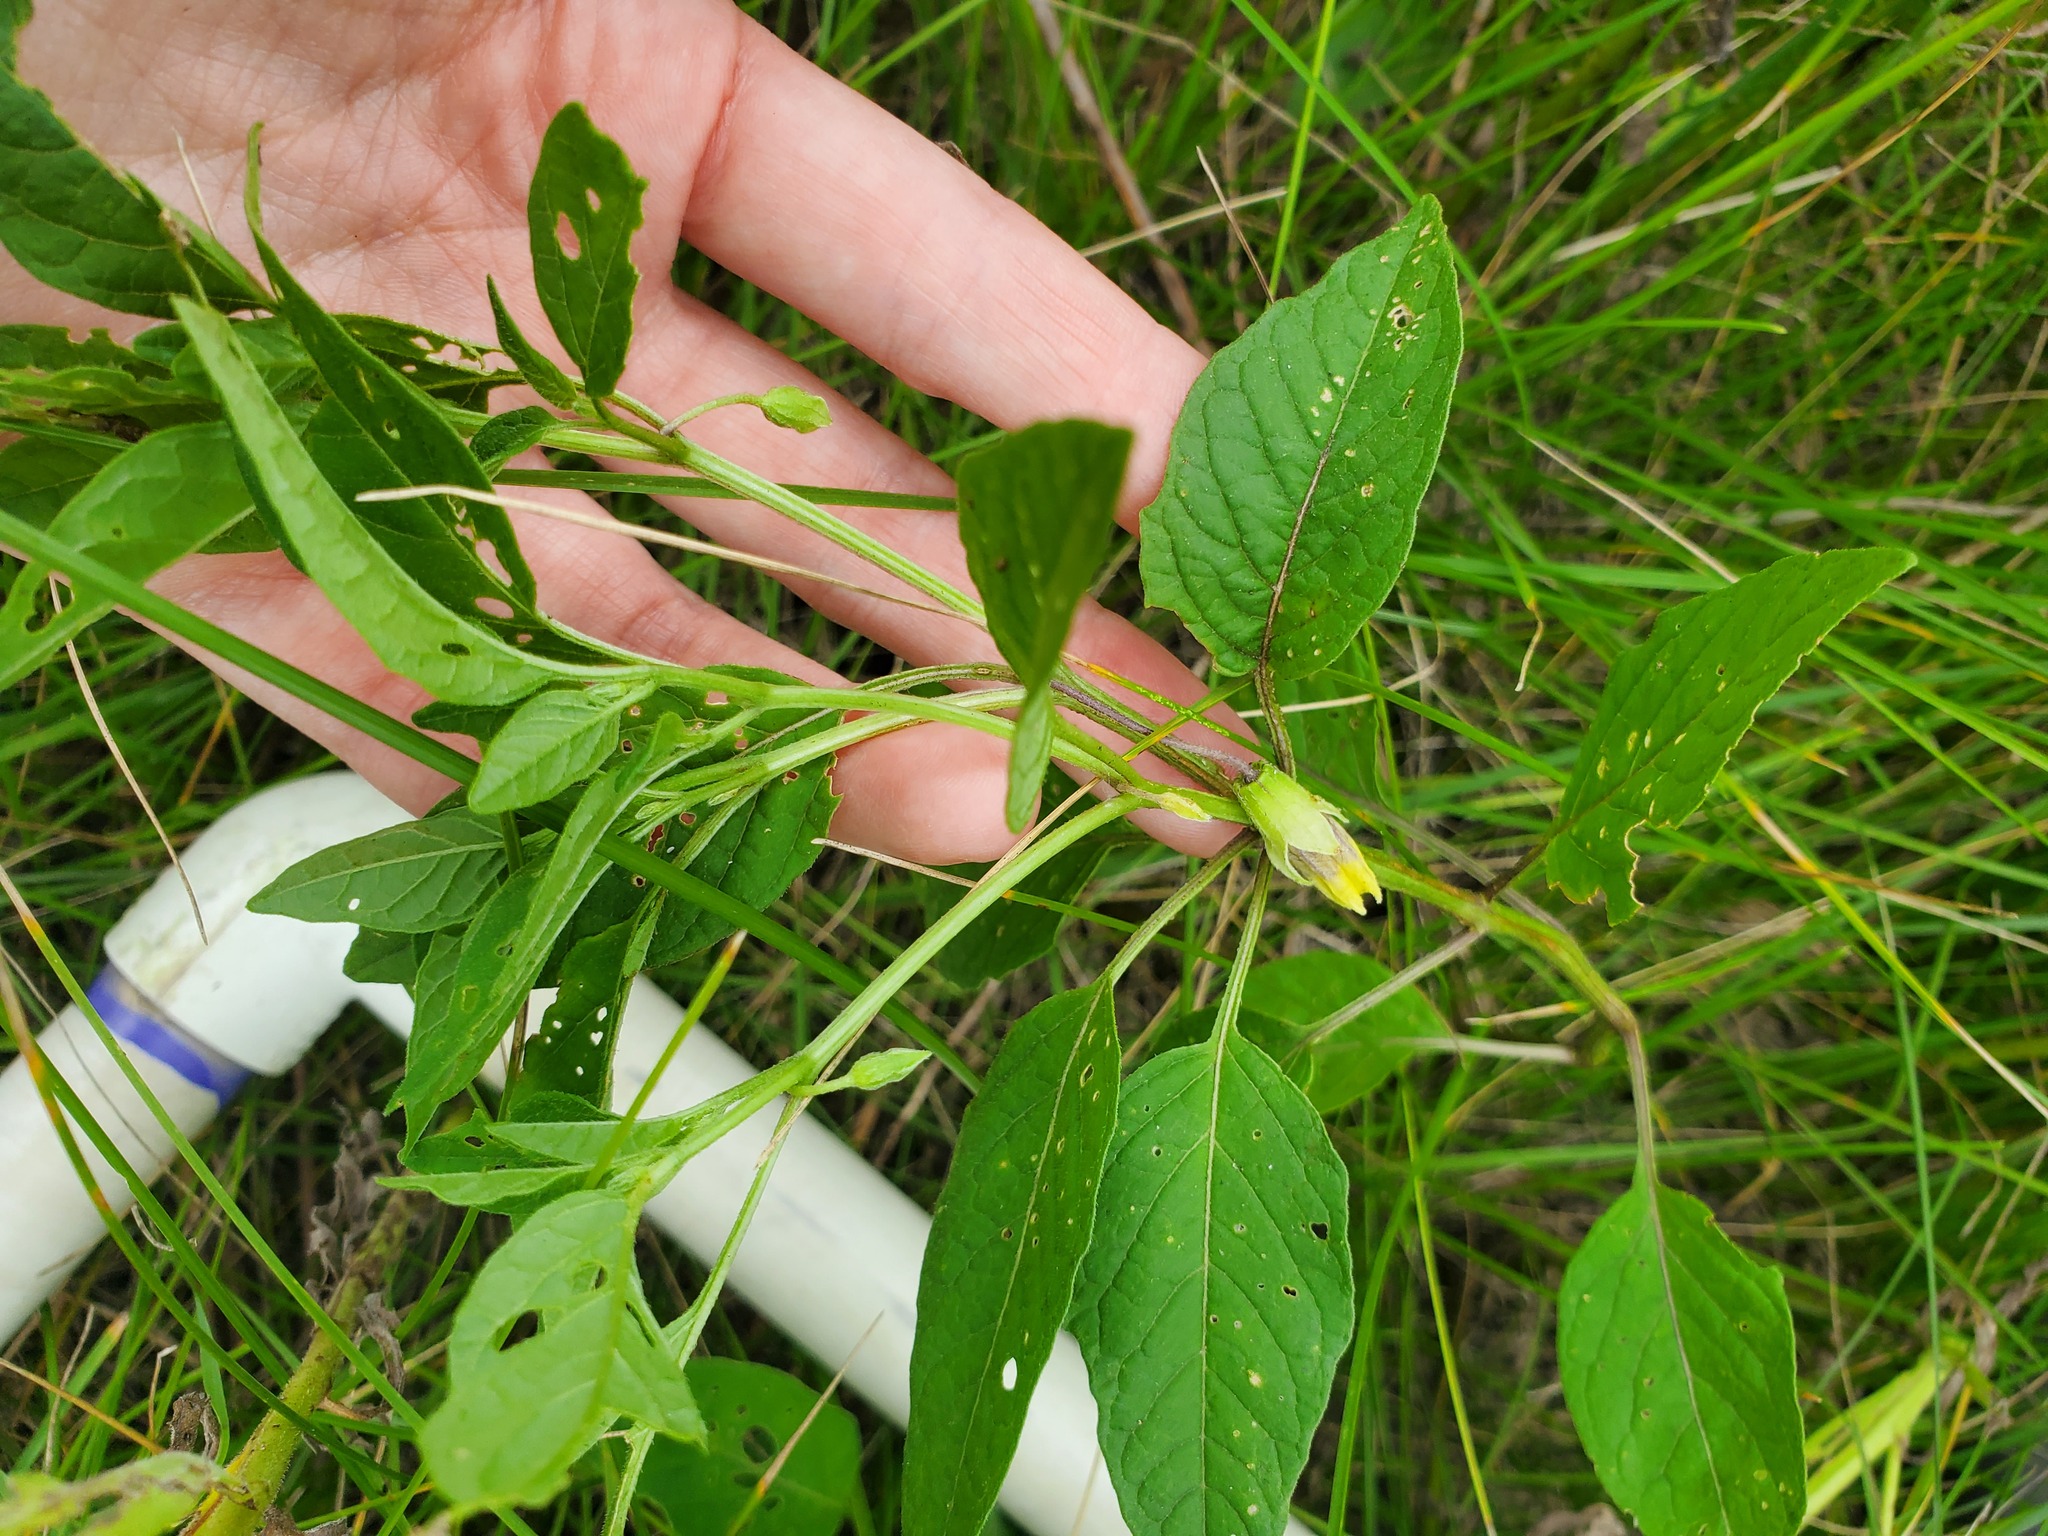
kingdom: Plantae
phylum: Tracheophyta
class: Magnoliopsida
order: Solanales
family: Solanaceae
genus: Physalis
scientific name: Physalis longifolia
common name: Common ground-cherry
